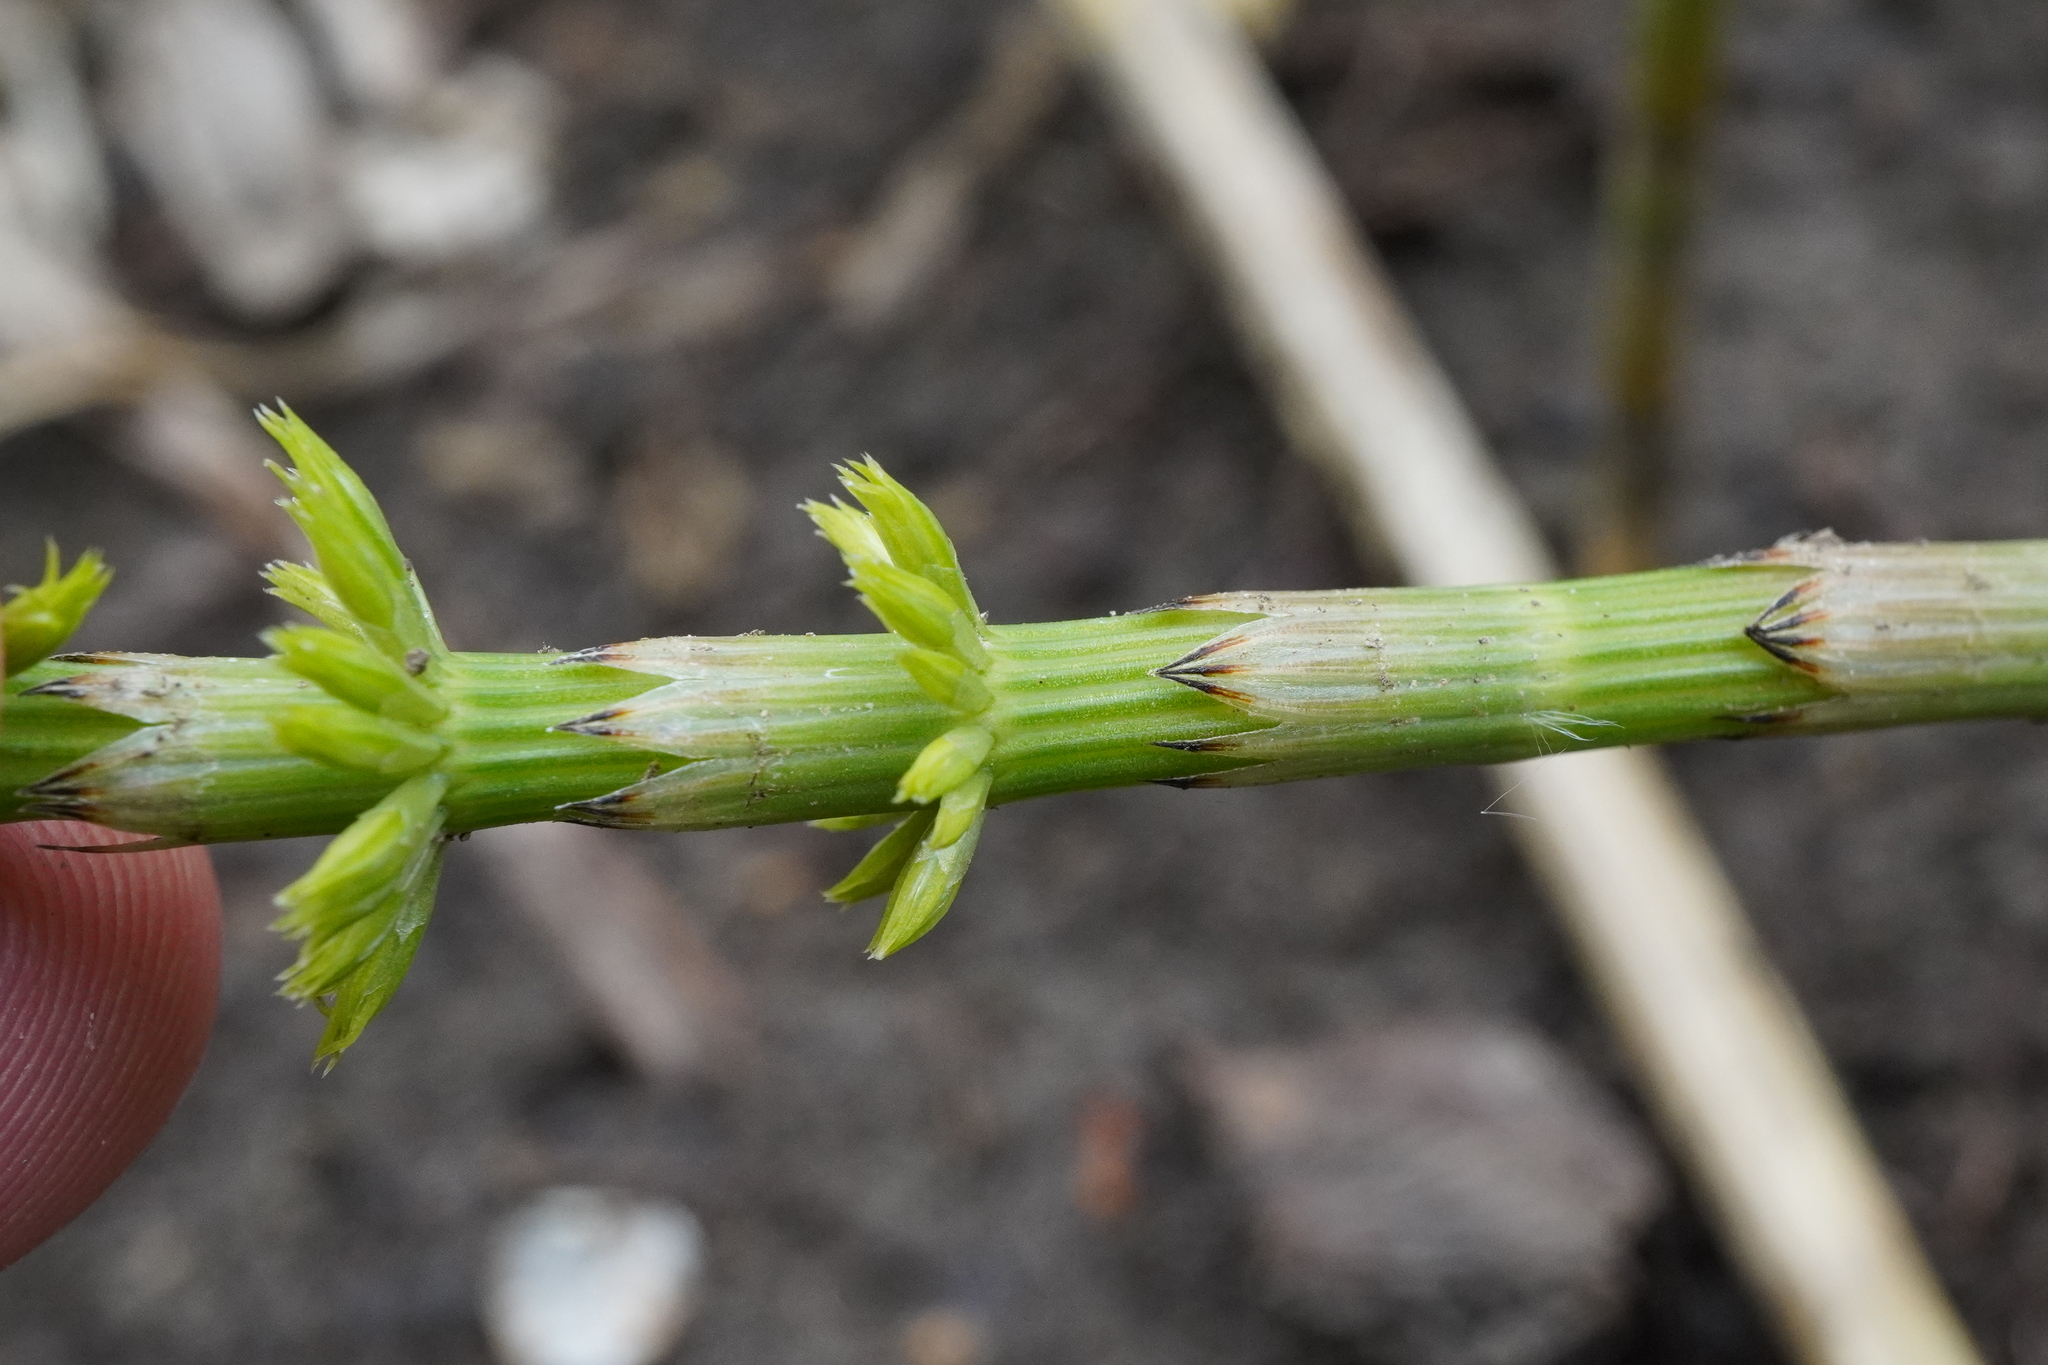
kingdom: Plantae
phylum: Tracheophyta
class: Polypodiopsida
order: Equisetales
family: Equisetaceae
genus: Equisetum
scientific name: Equisetum palustre
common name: Marsh horsetail
